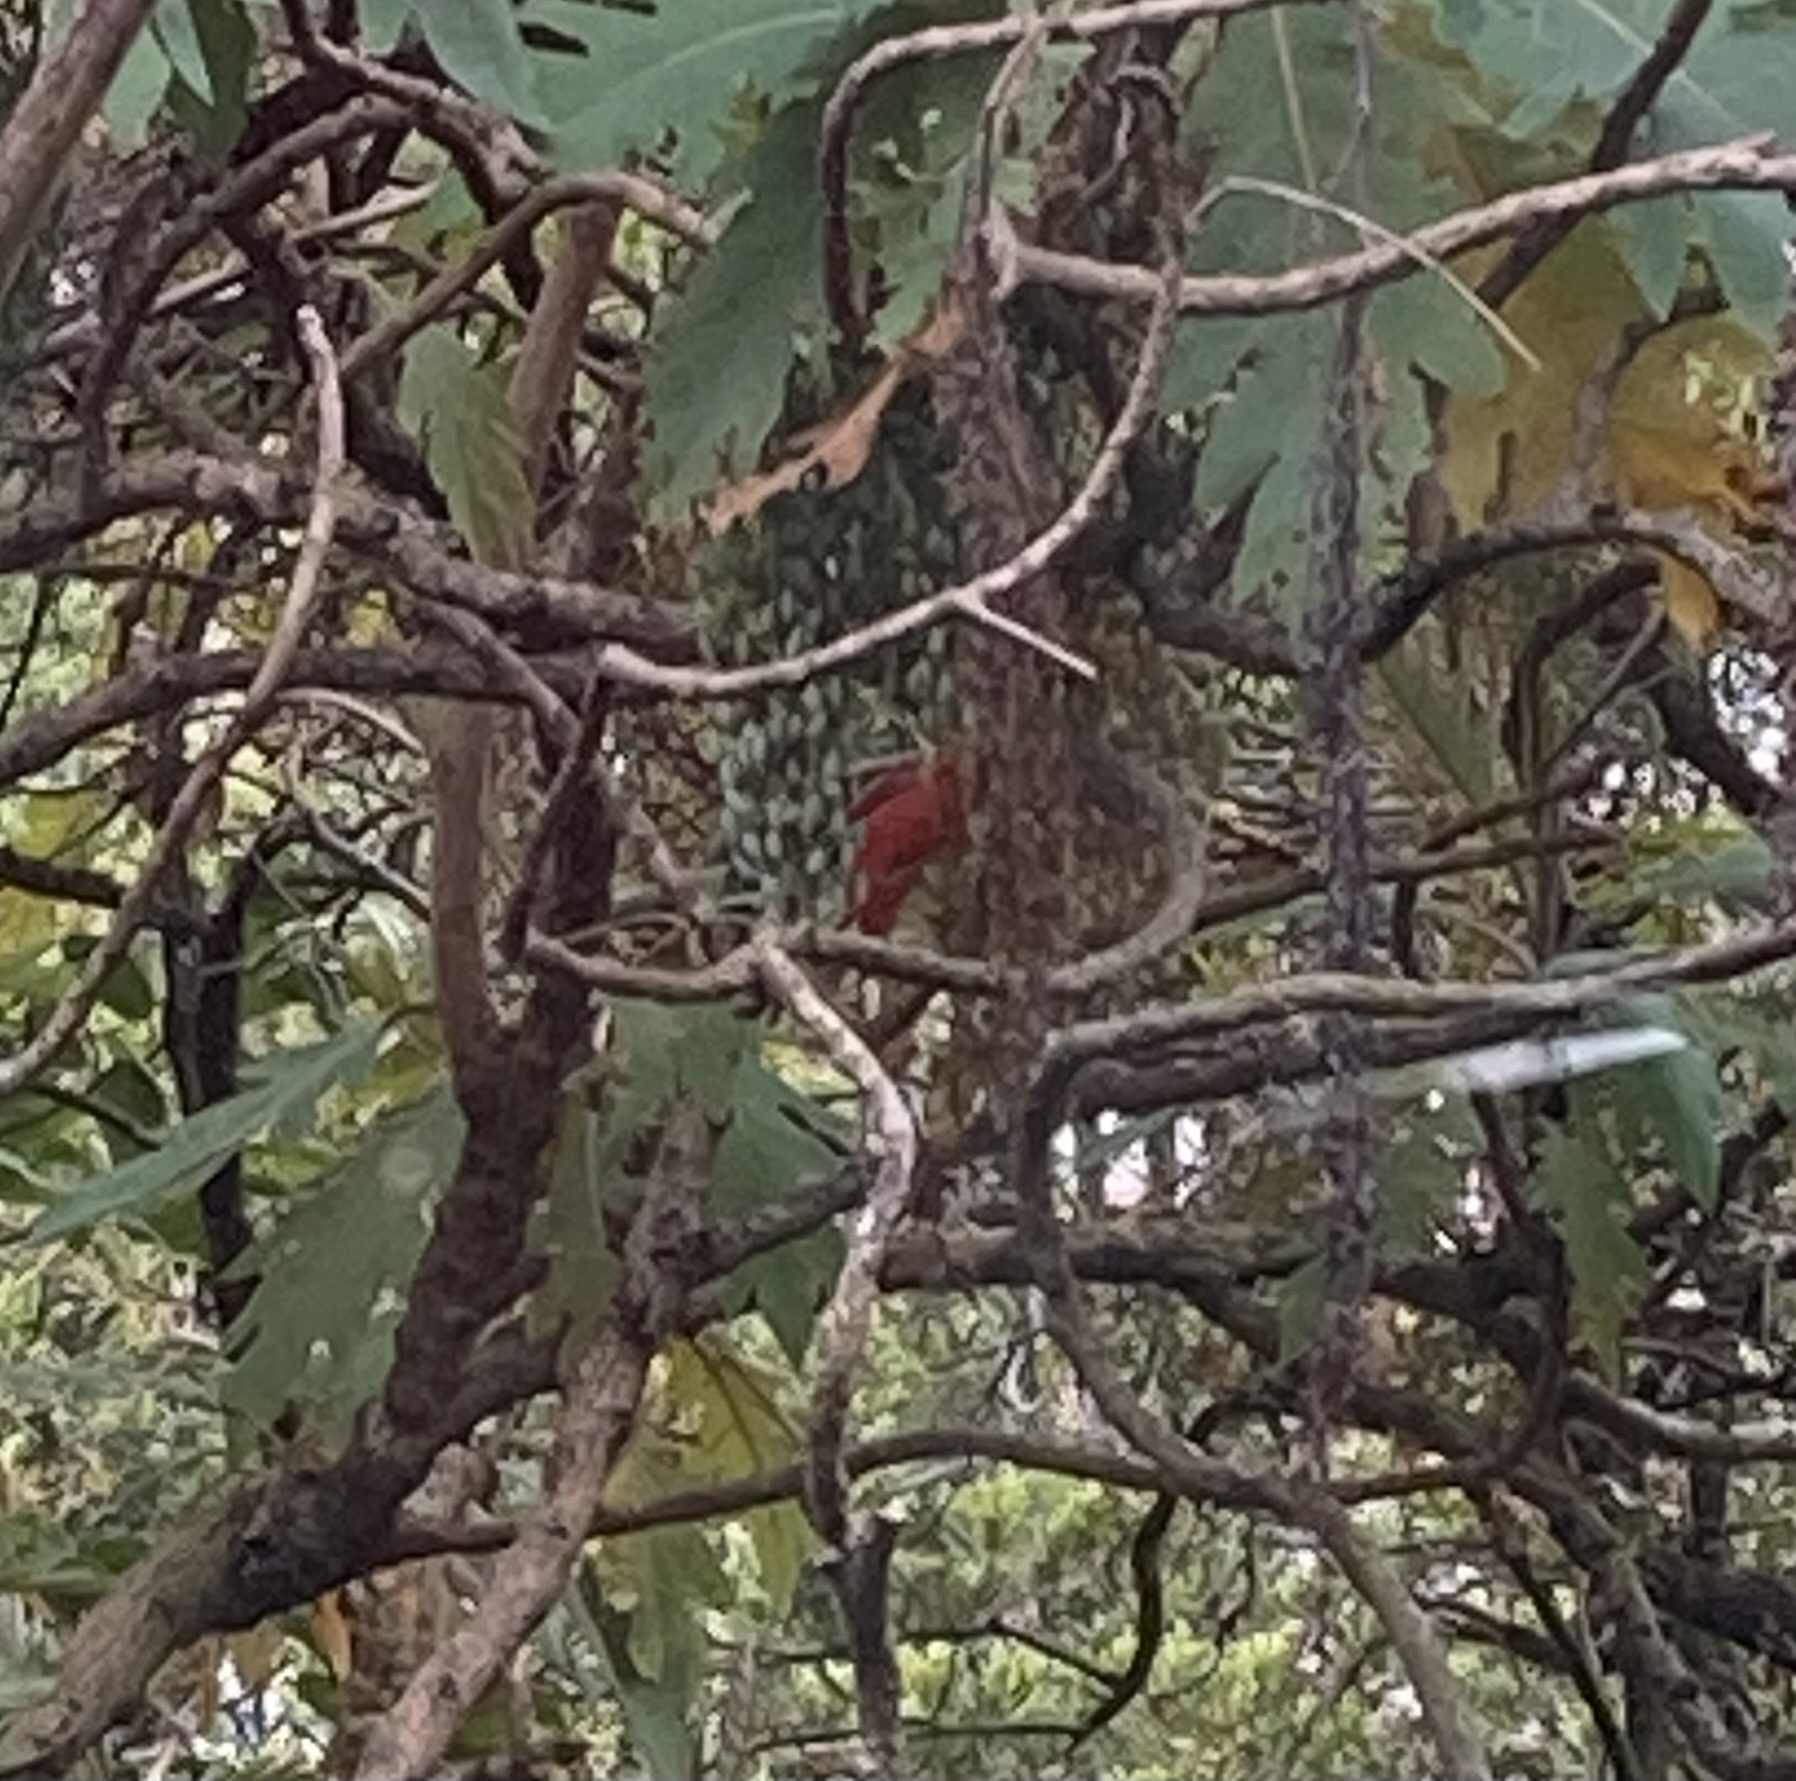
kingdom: Animalia
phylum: Chordata
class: Aves
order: Passeriformes
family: Cardinalidae
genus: Piranga
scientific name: Piranga rubra
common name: Summer tanager
